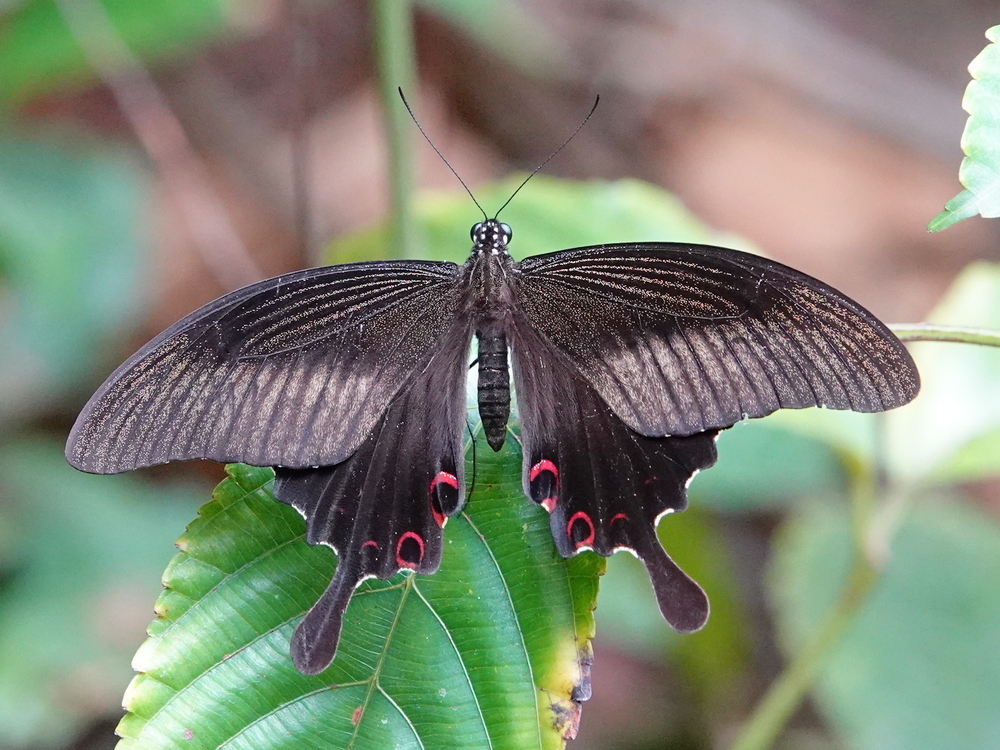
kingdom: Animalia
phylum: Arthropoda
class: Insecta
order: Lepidoptera
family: Papilionidae
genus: Papilio
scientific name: Papilio helenus
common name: Red helen
